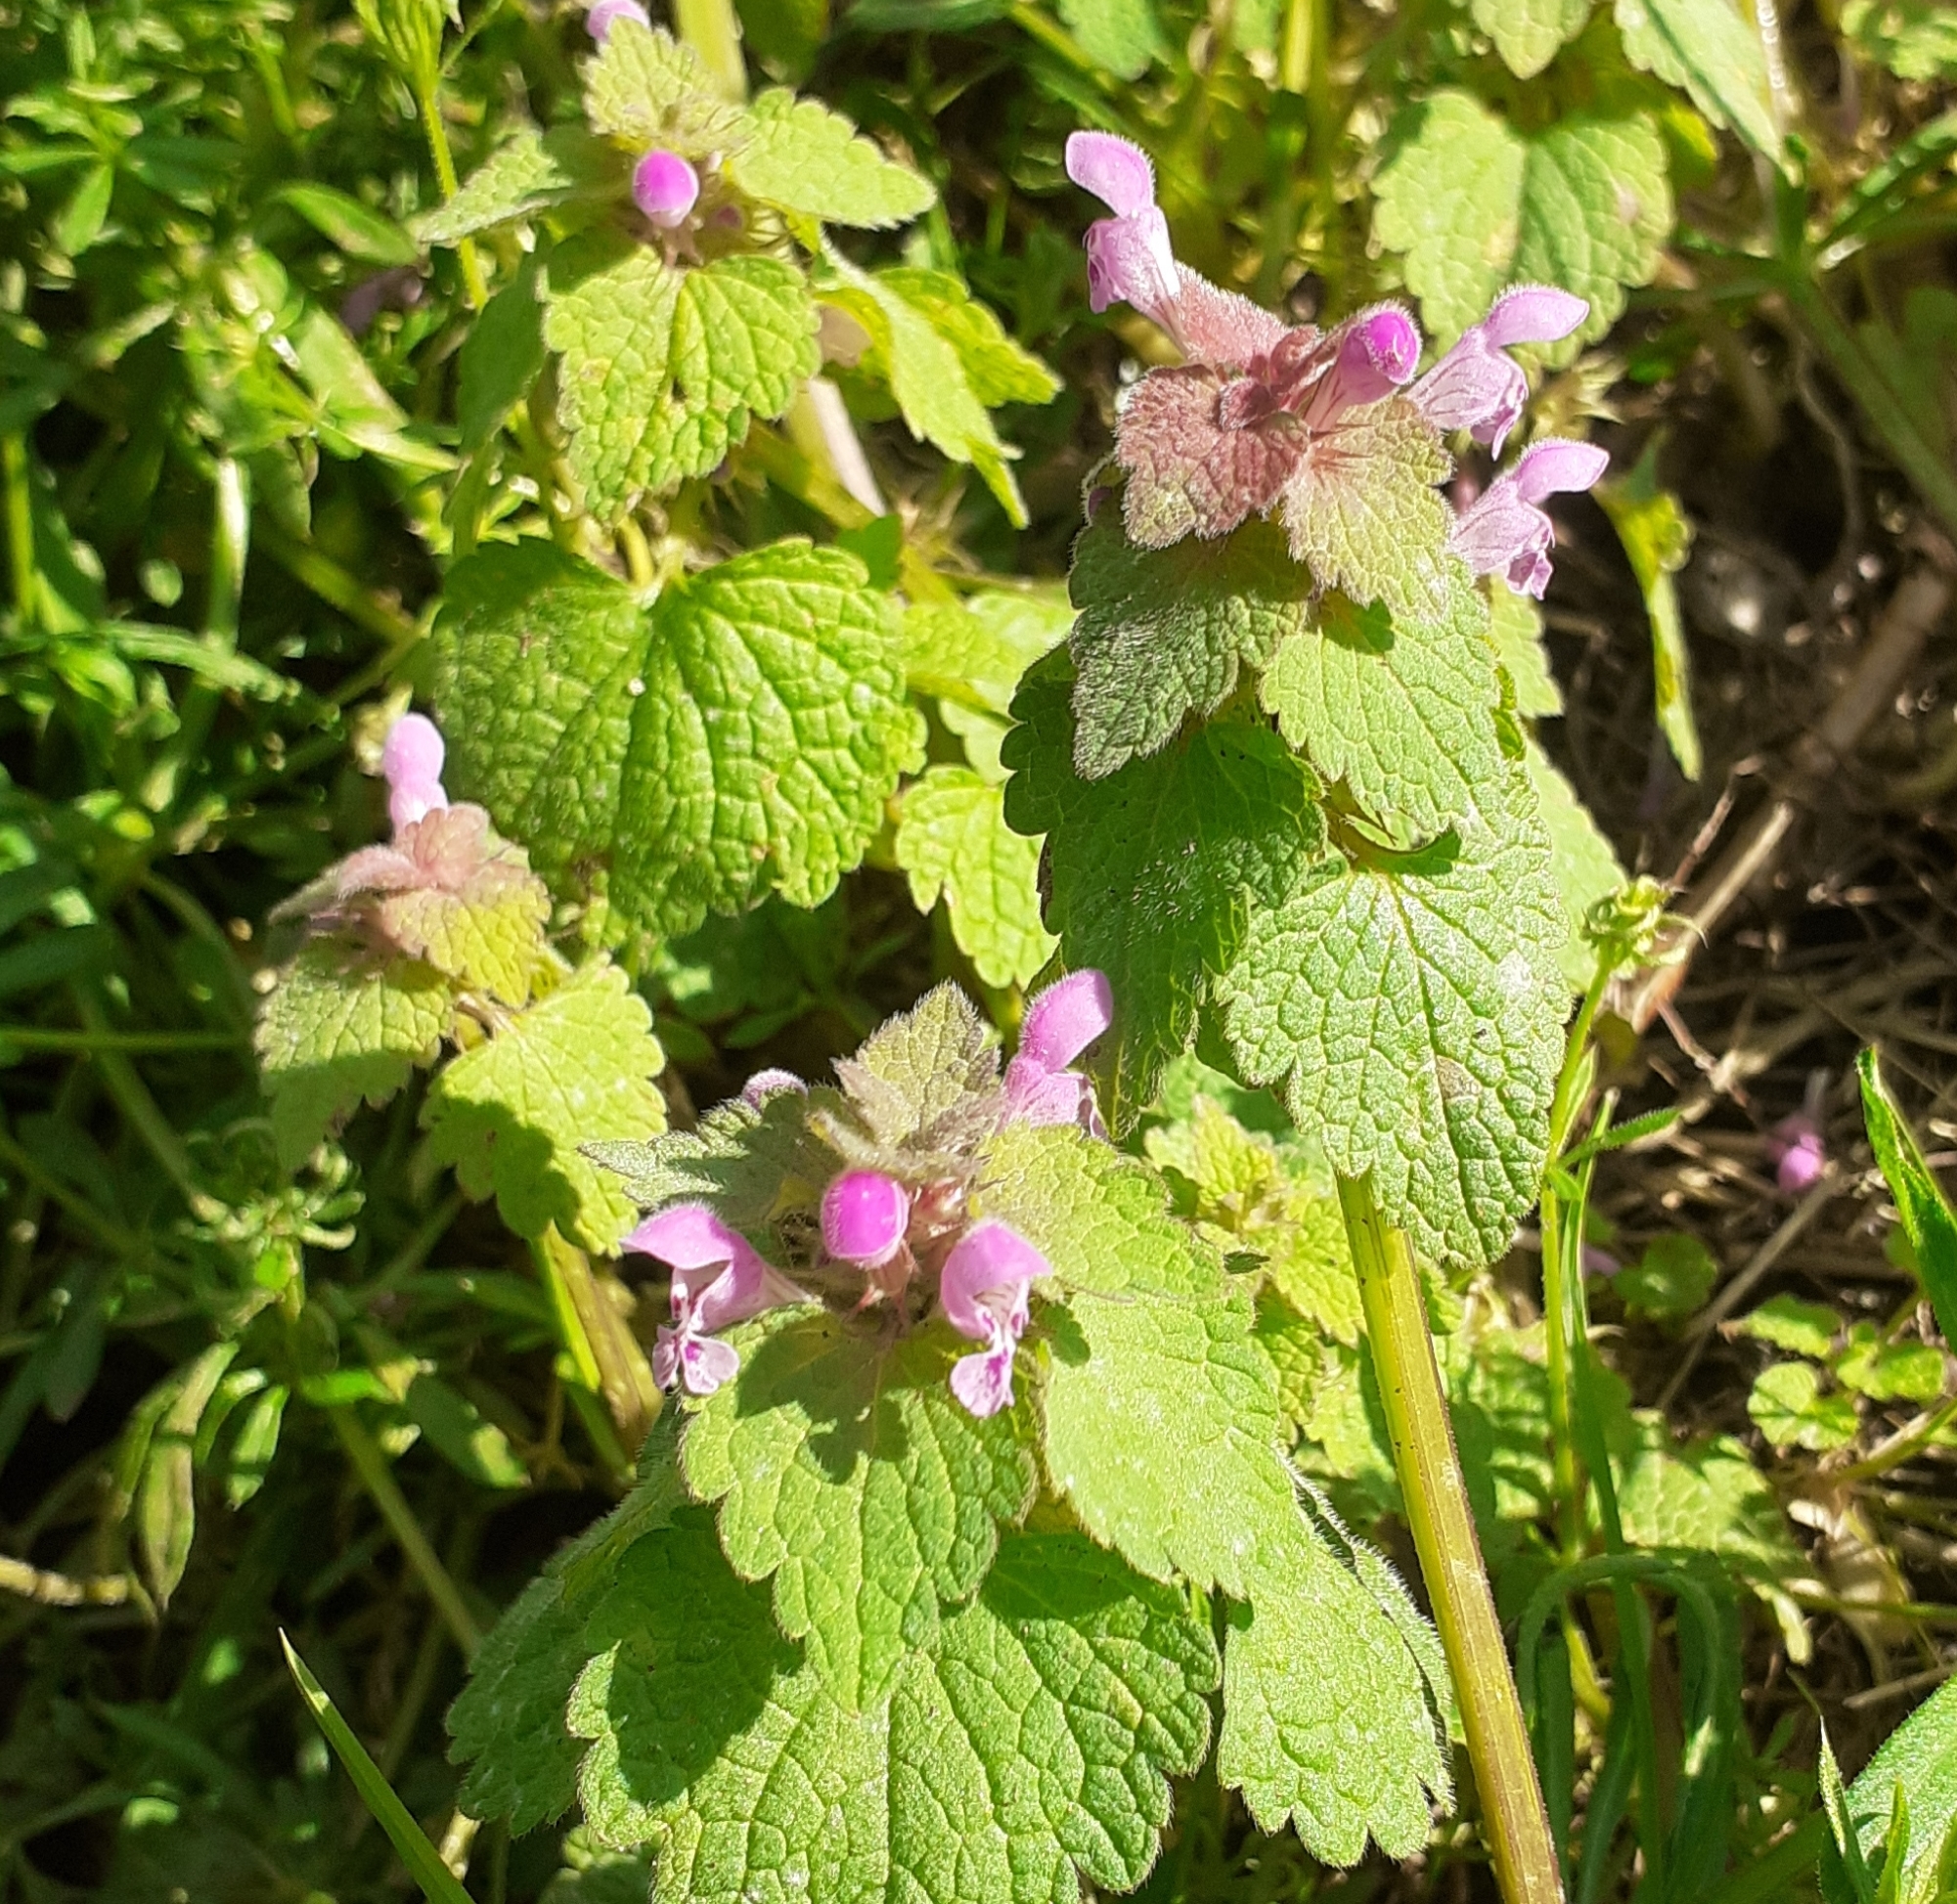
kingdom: Plantae
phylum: Tracheophyta
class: Magnoliopsida
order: Lamiales
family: Lamiaceae
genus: Lamium
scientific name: Lamium purpureum
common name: Red dead-nettle
